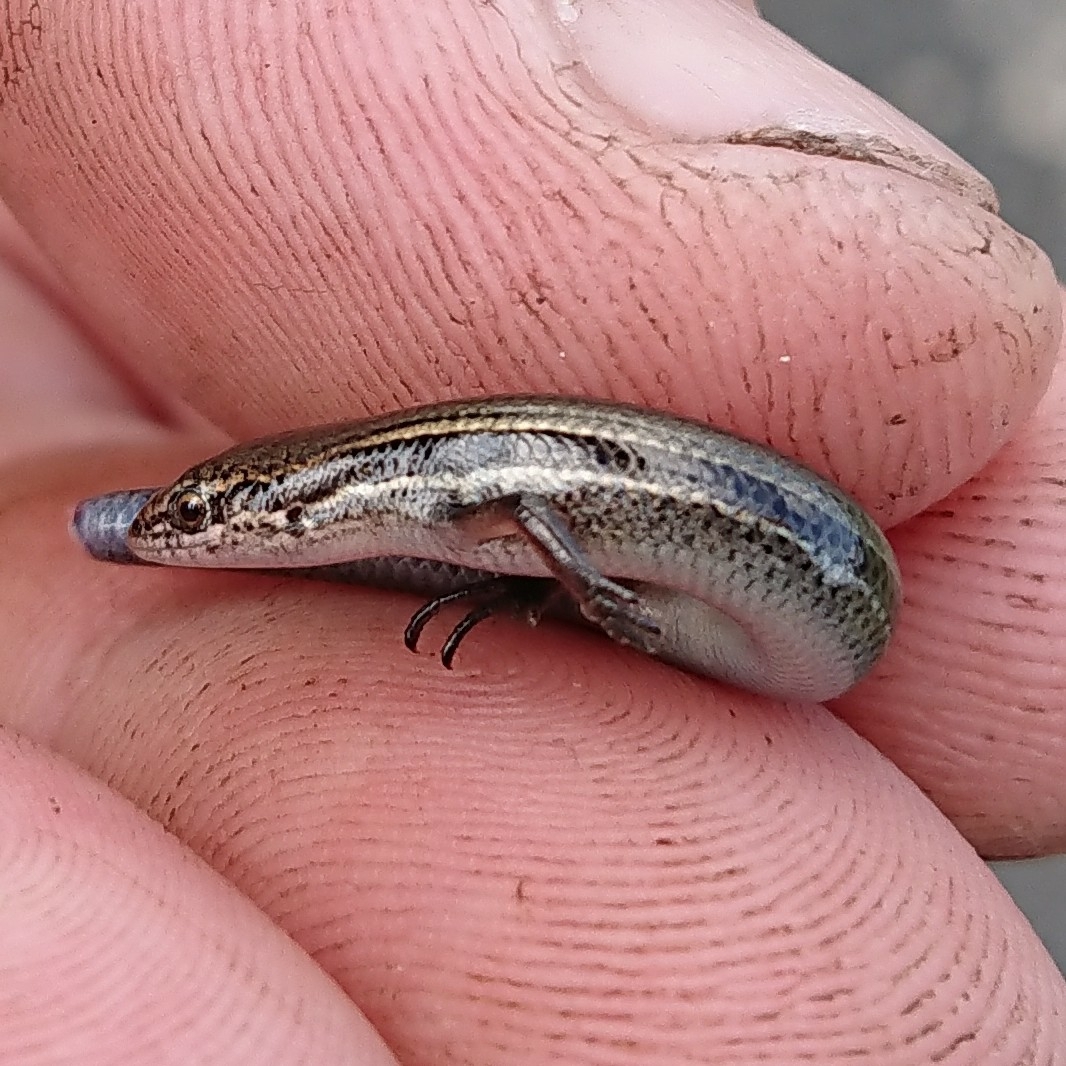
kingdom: Animalia
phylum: Chordata
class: Squamata
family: Scincidae
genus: Panaspis
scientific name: Panaspis wahlbergii
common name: Angolan snake-eyed skink
